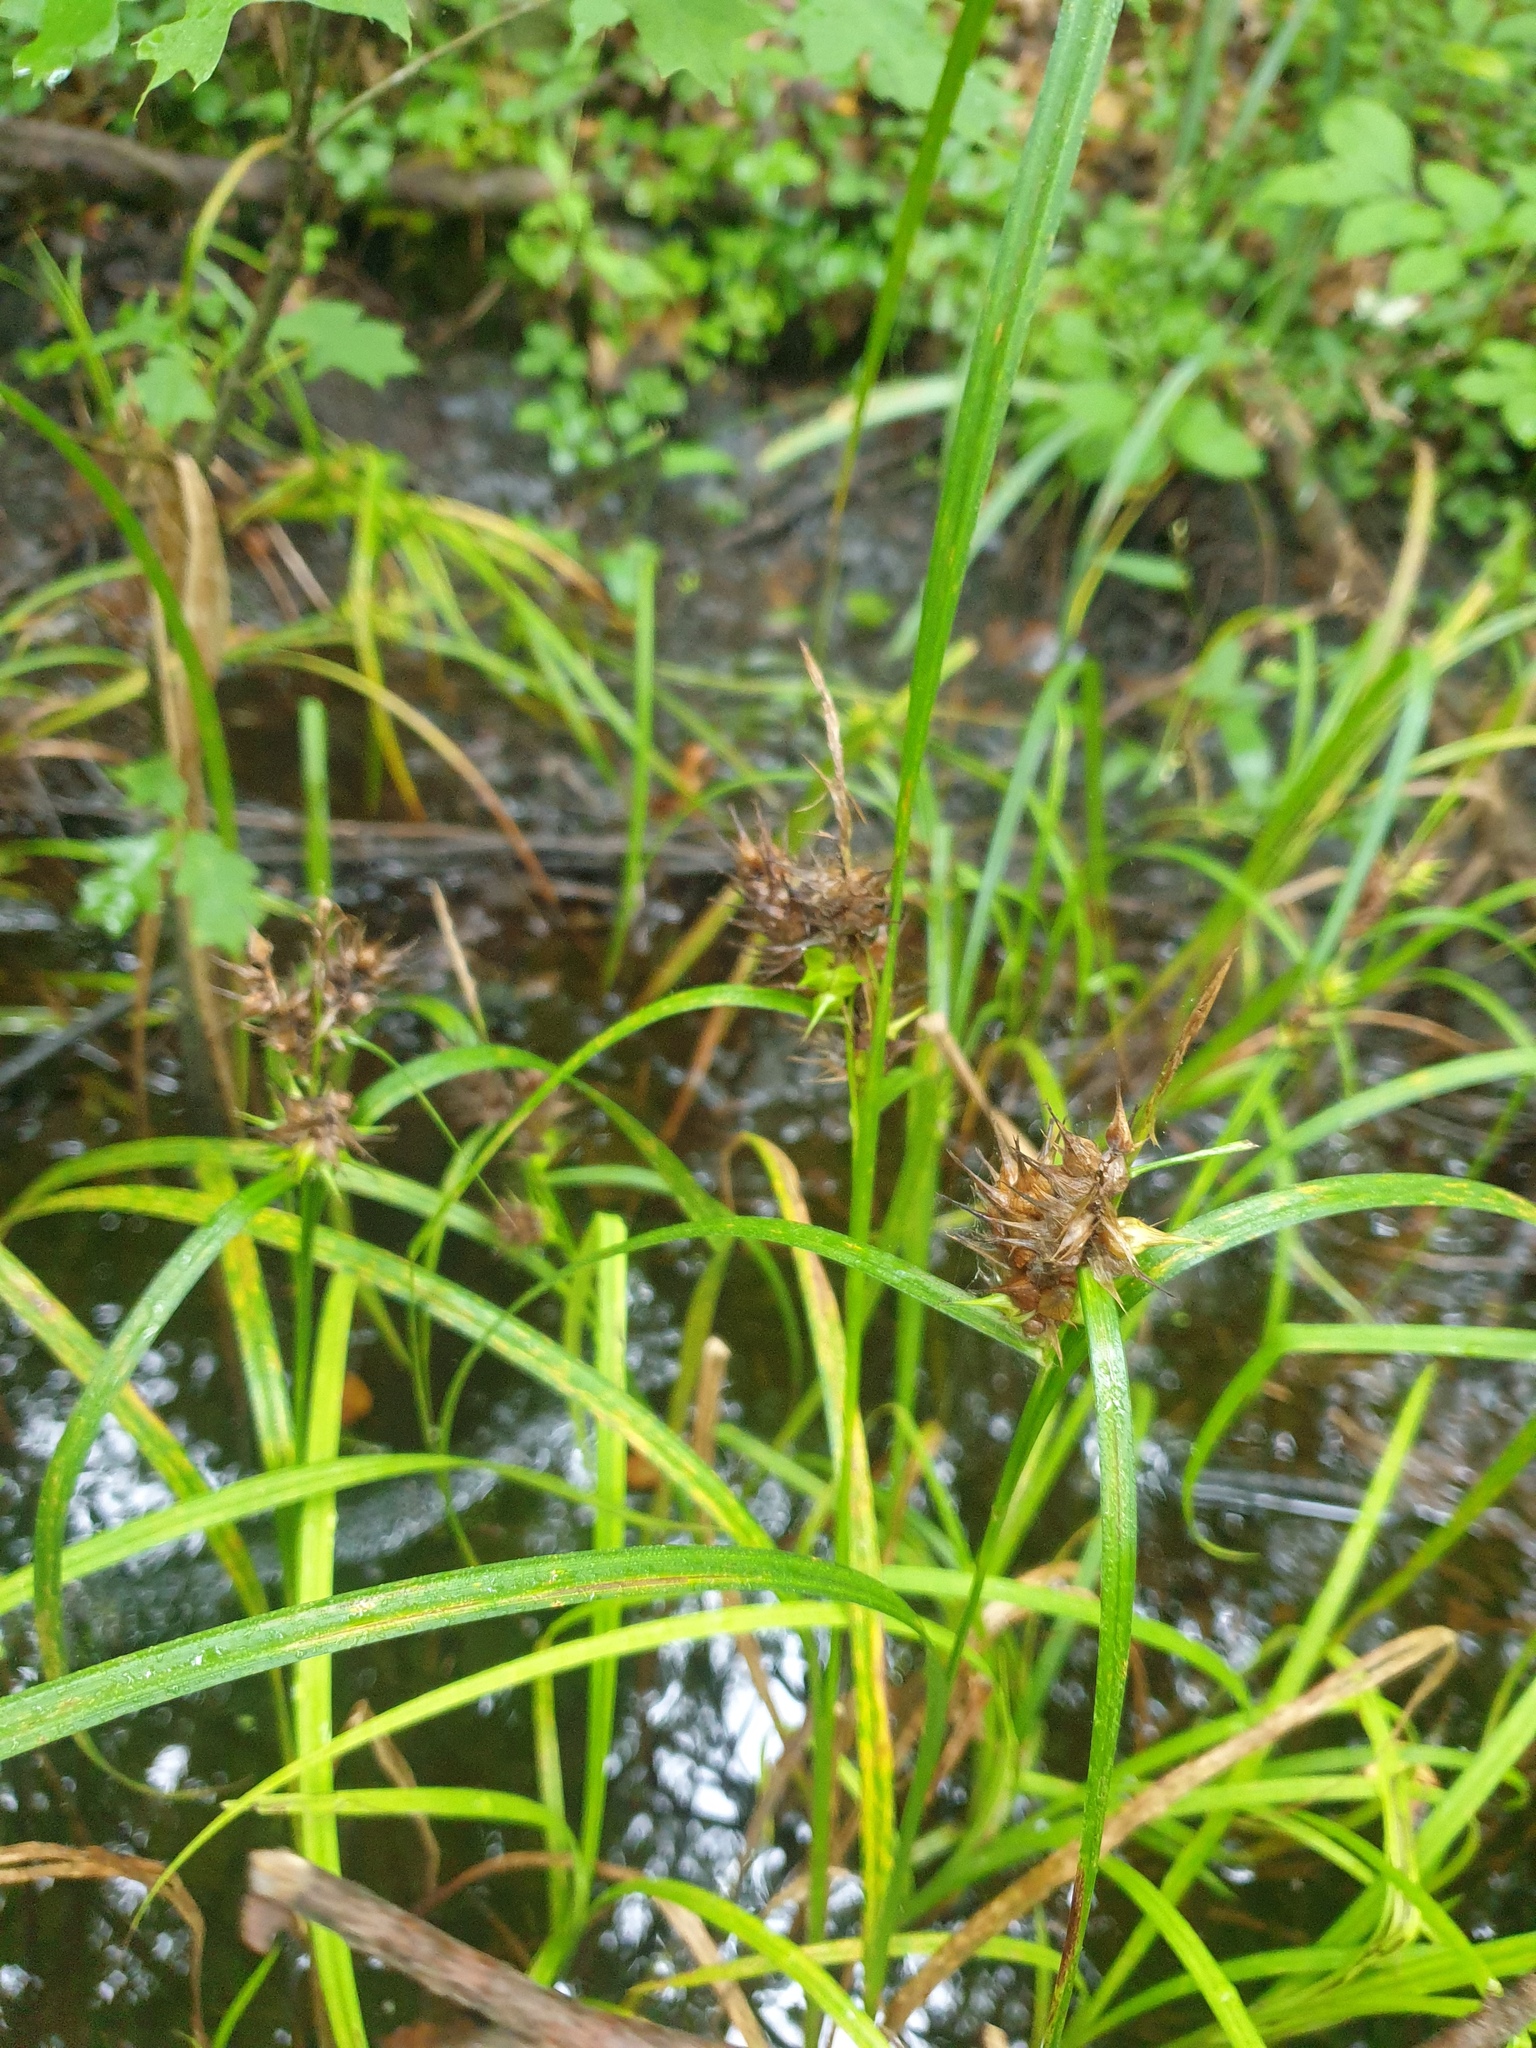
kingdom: Plantae
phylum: Tracheophyta
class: Liliopsida
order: Poales
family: Cyperaceae
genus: Carex
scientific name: Carex lupulina
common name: Hop sedge
